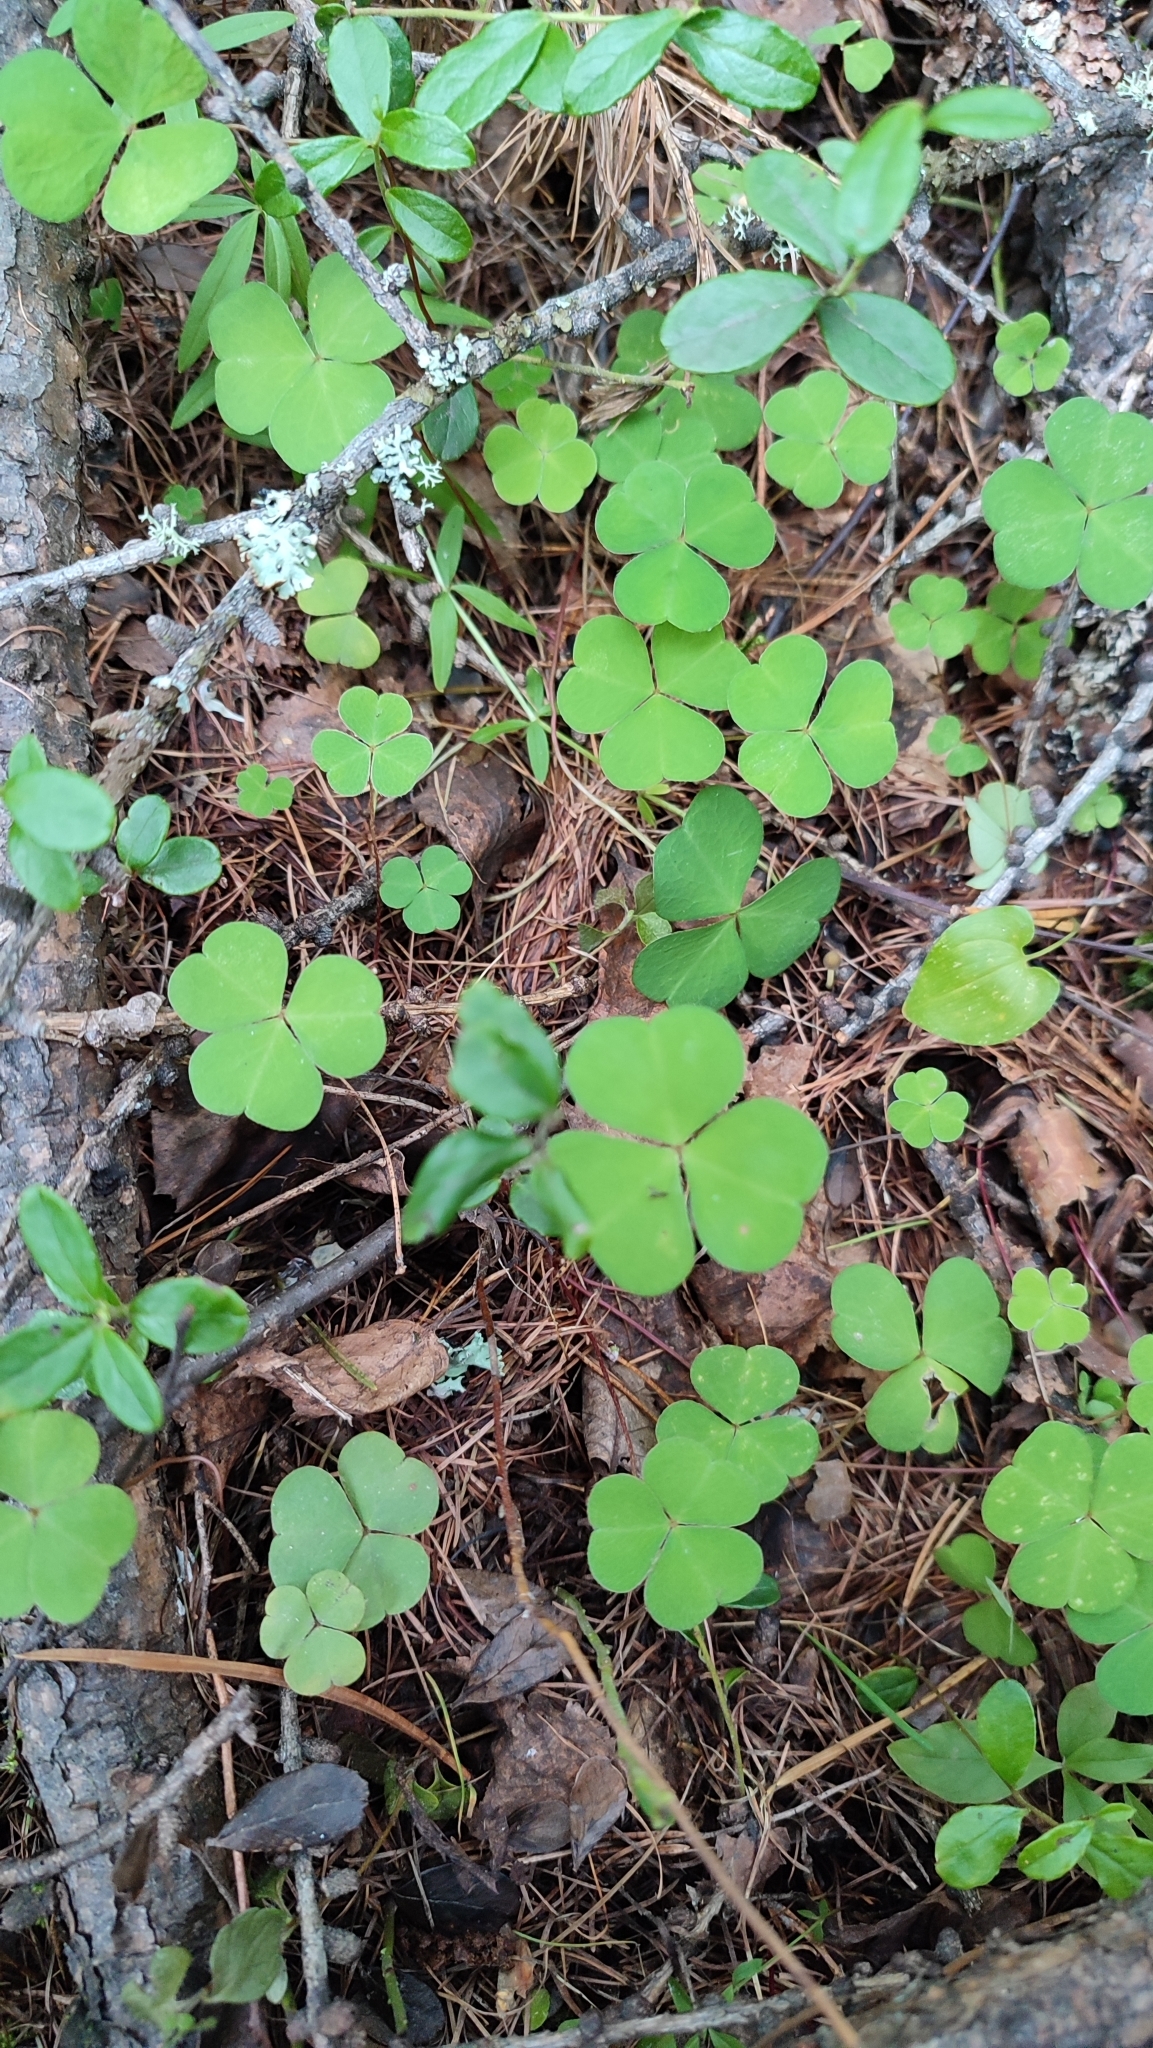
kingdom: Plantae
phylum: Tracheophyta
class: Magnoliopsida
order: Oxalidales
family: Oxalidaceae
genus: Oxalis
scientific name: Oxalis acetosella
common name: Wood-sorrel
